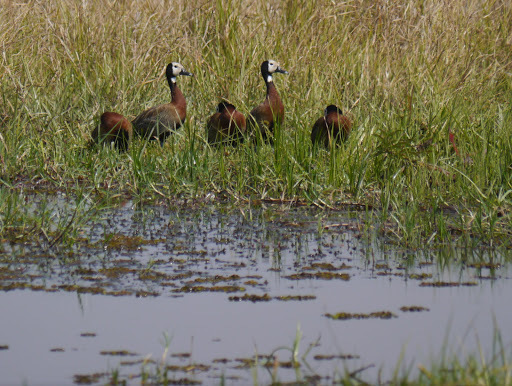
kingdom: Animalia
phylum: Chordata
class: Aves
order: Anseriformes
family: Anatidae
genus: Dendrocygna
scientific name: Dendrocygna viduata
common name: White-faced whistling duck
